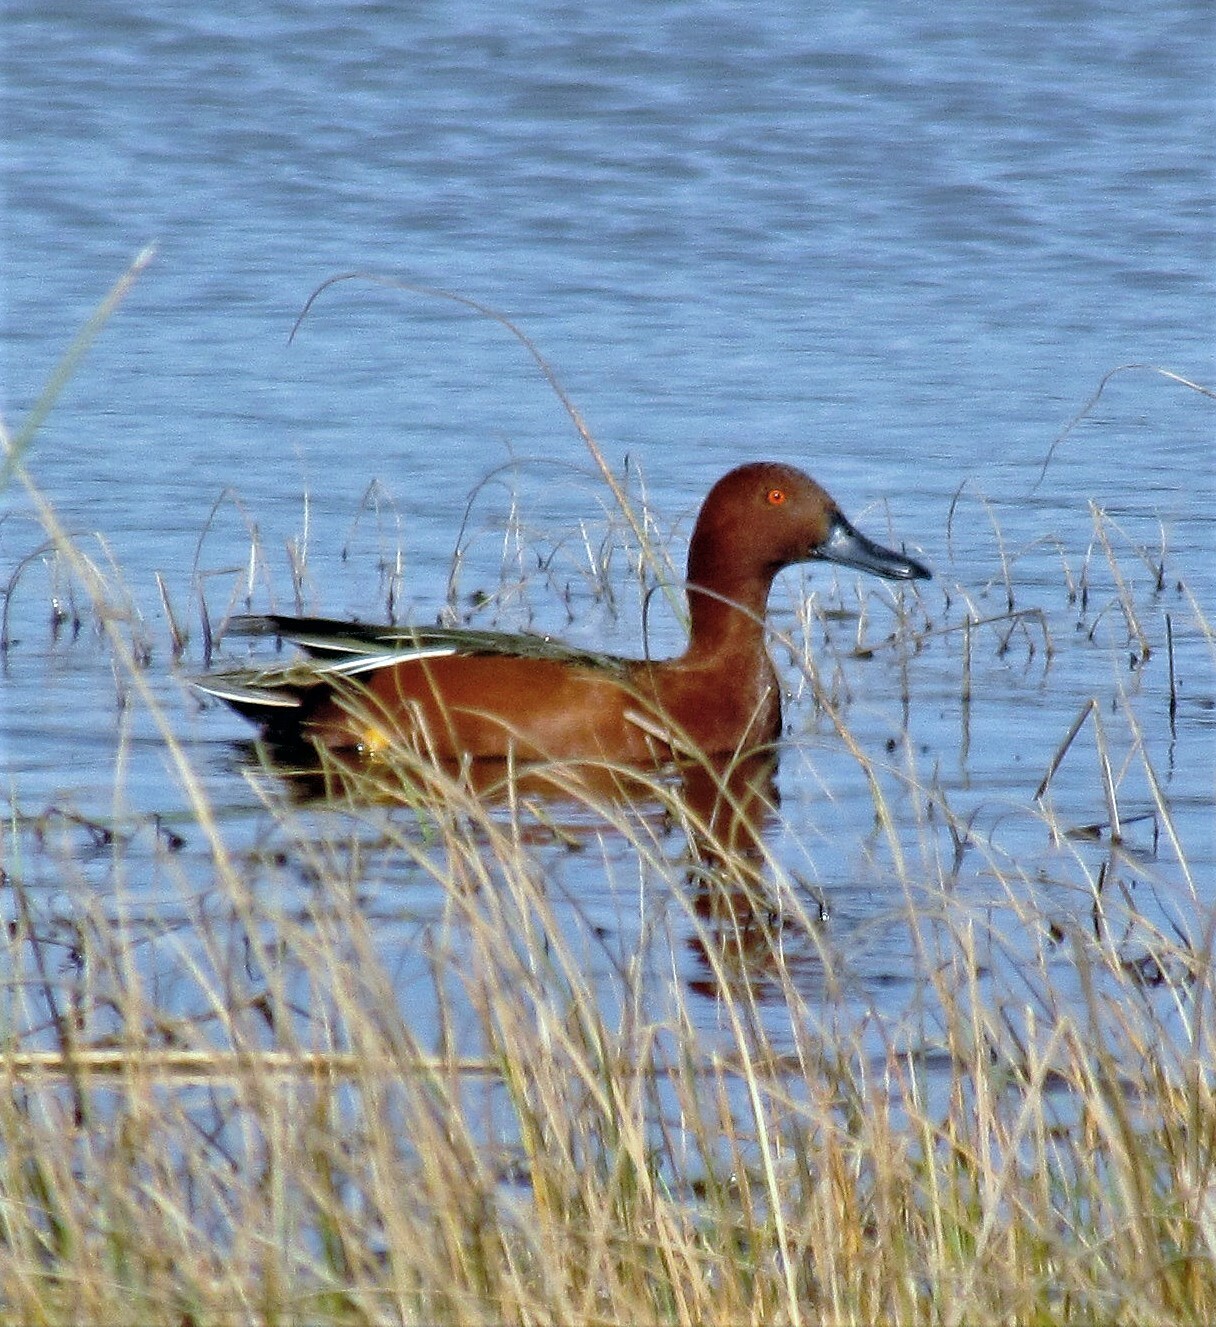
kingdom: Animalia
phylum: Chordata
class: Aves
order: Anseriformes
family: Anatidae
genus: Spatula
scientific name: Spatula cyanoptera
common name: Cinnamon teal
